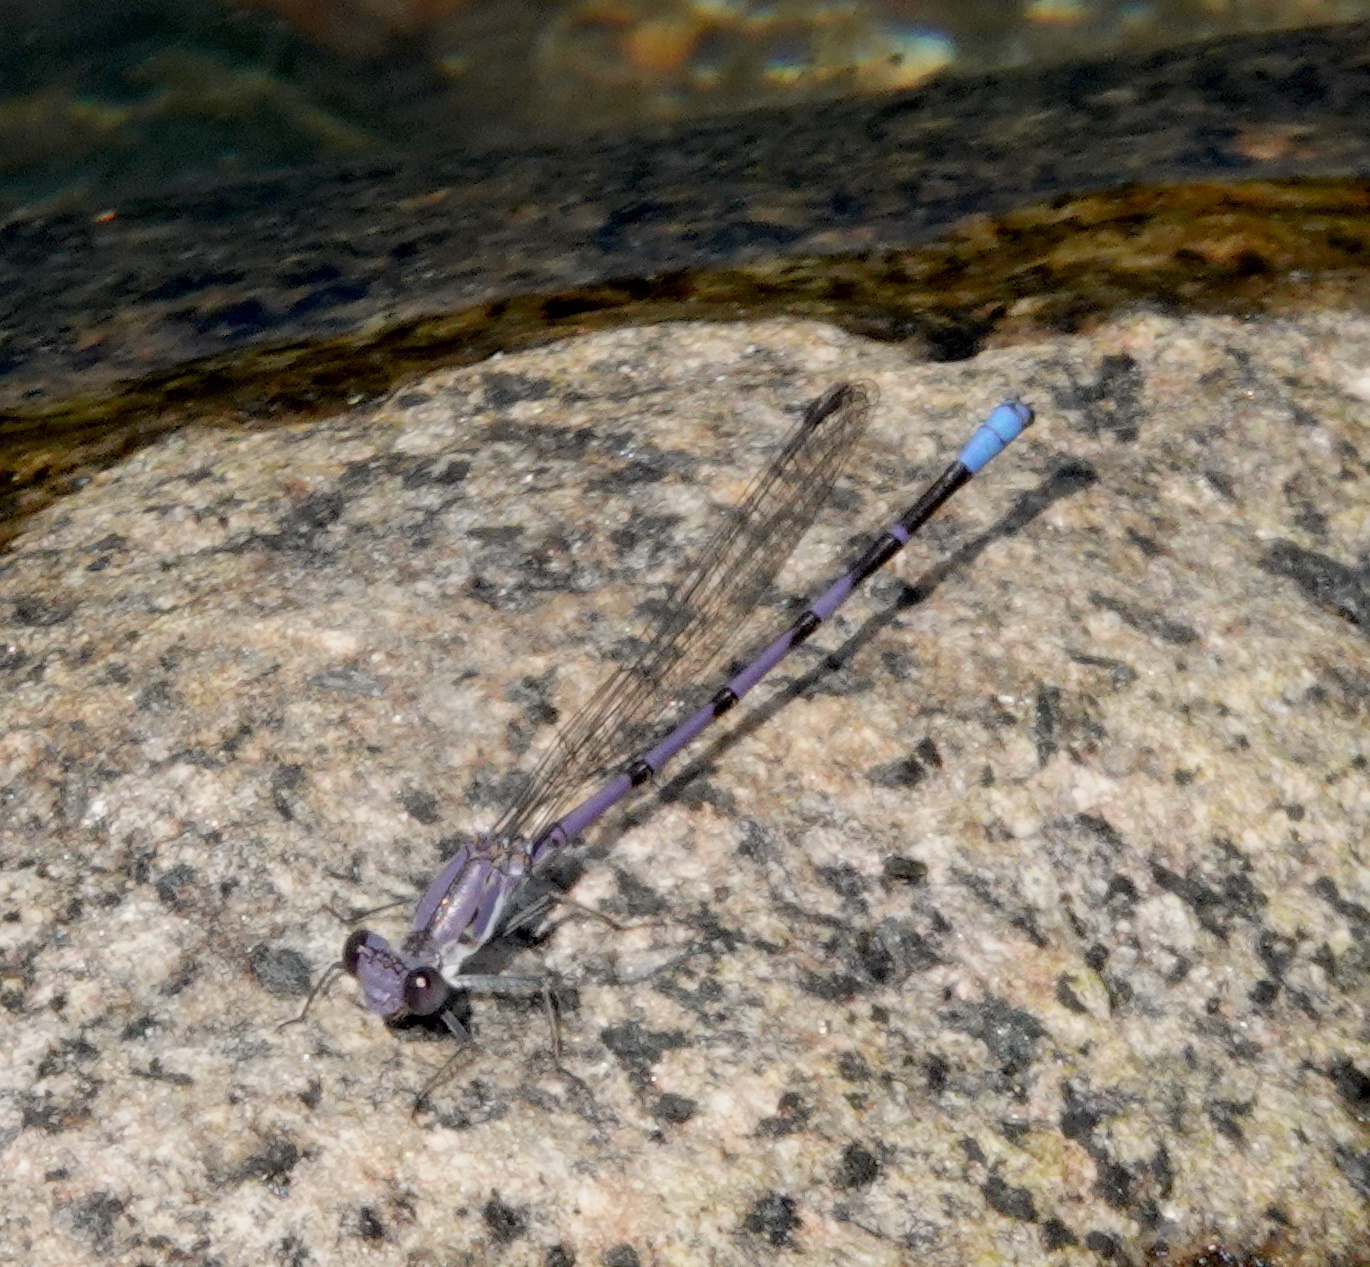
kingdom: Animalia
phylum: Arthropoda
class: Insecta
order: Odonata
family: Coenagrionidae
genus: Argia
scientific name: Argia emma
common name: Emma's dancer
